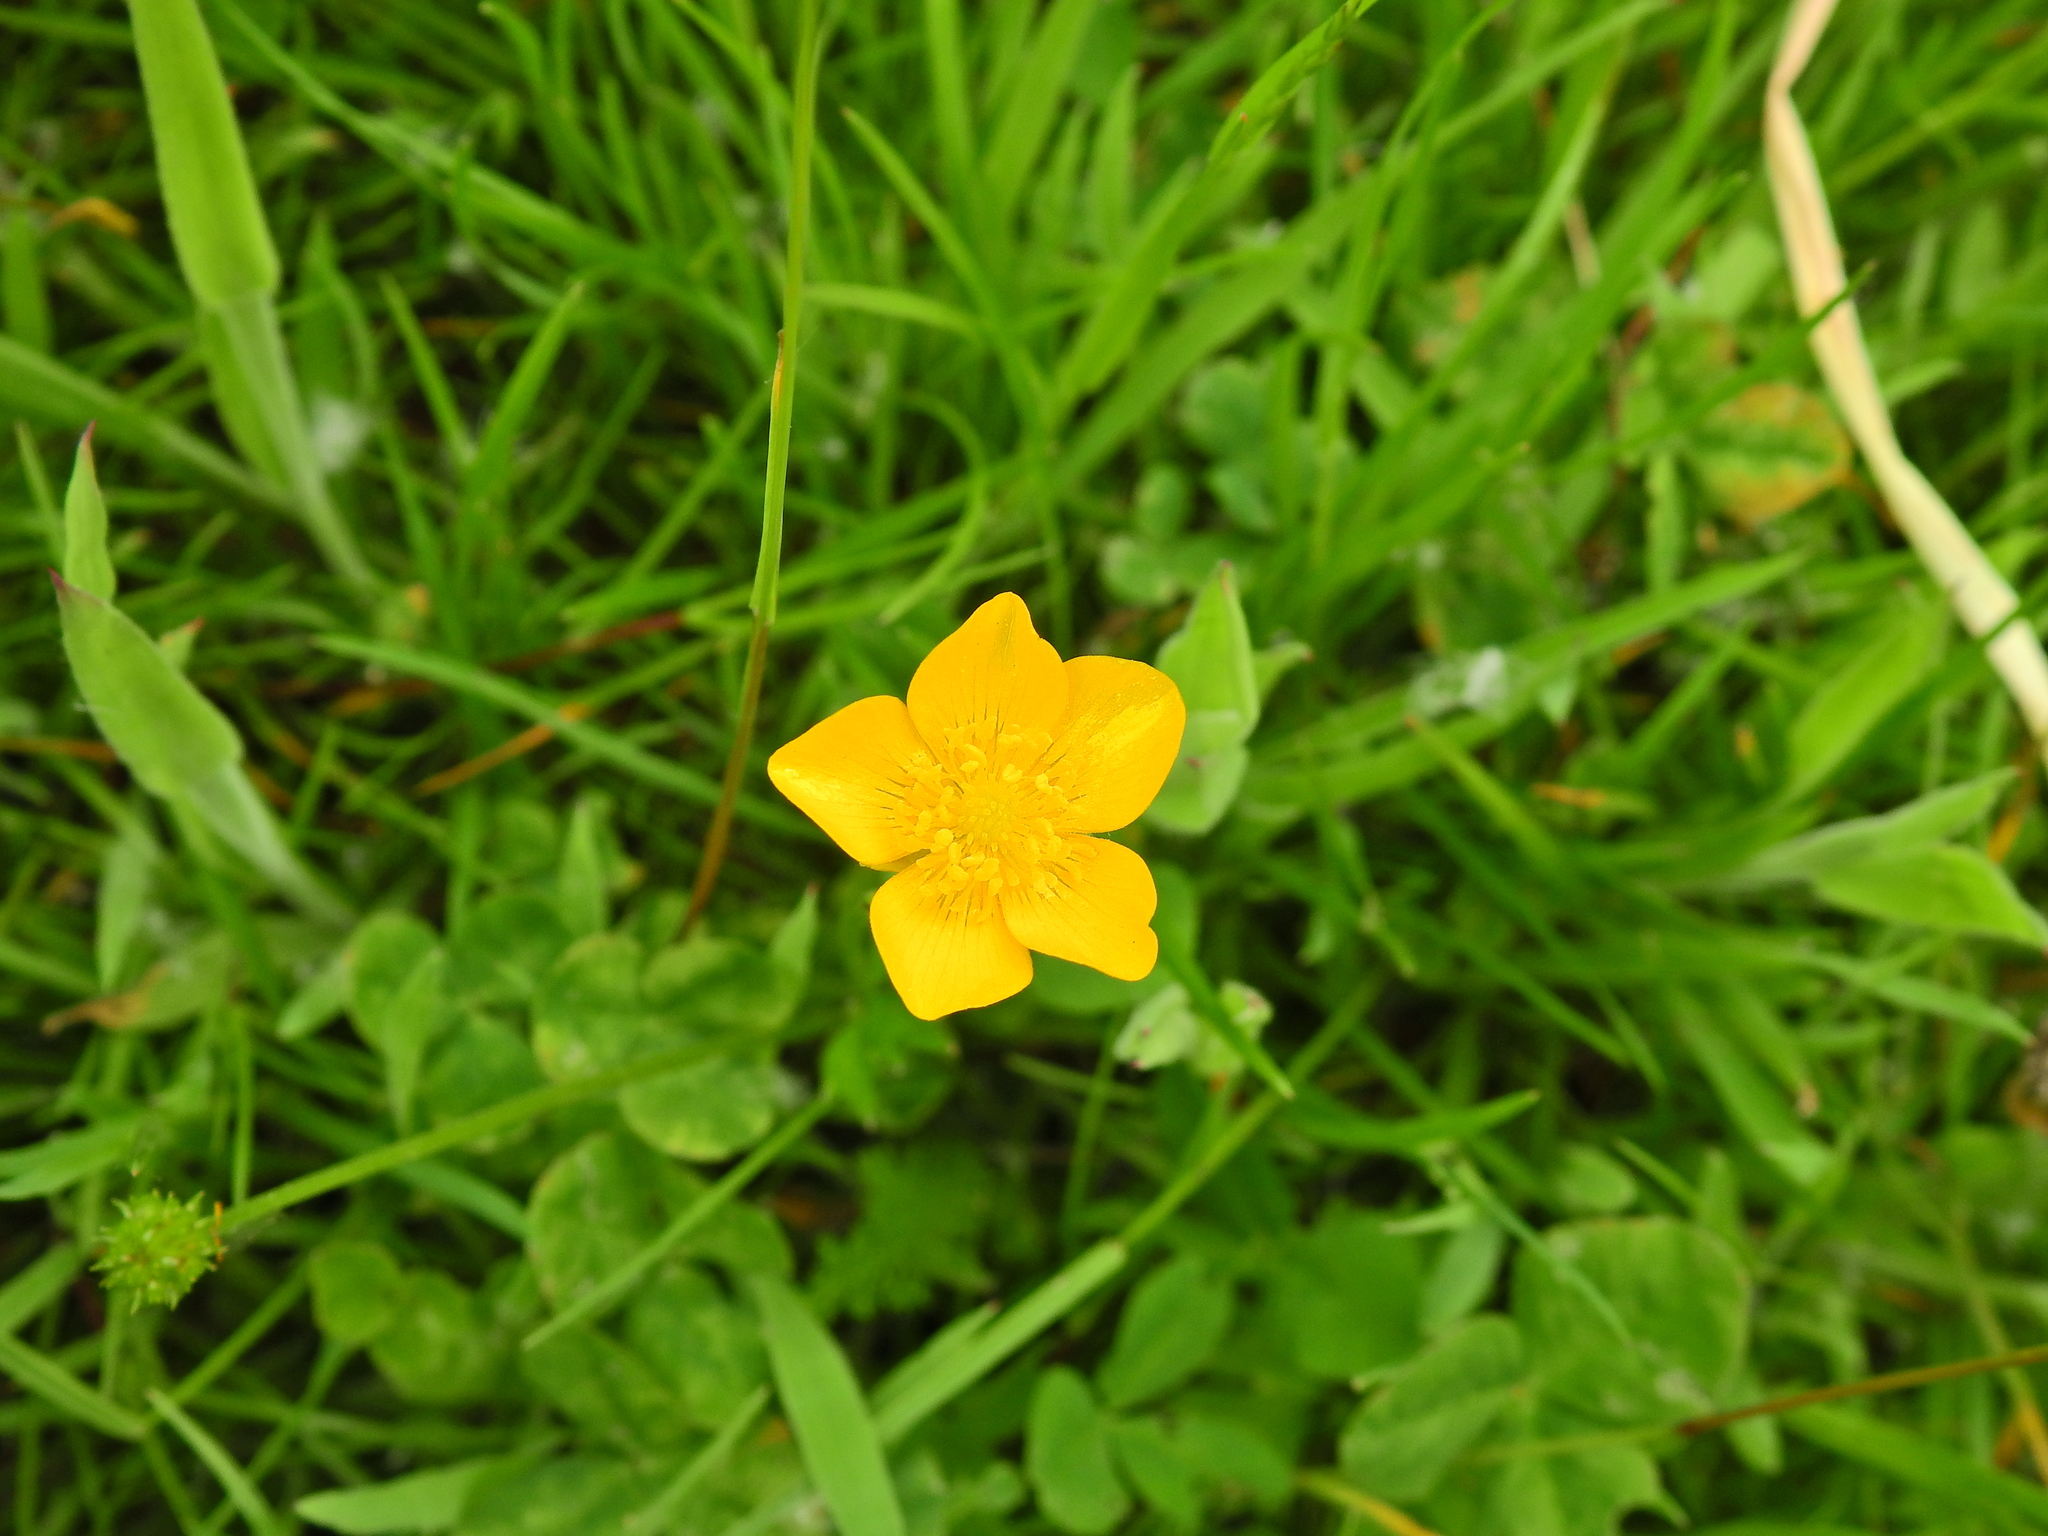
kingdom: Plantae
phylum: Tracheophyta
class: Magnoliopsida
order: Ranunculales
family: Ranunculaceae
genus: Ranunculus
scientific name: Ranunculus repens
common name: Creeping buttercup
